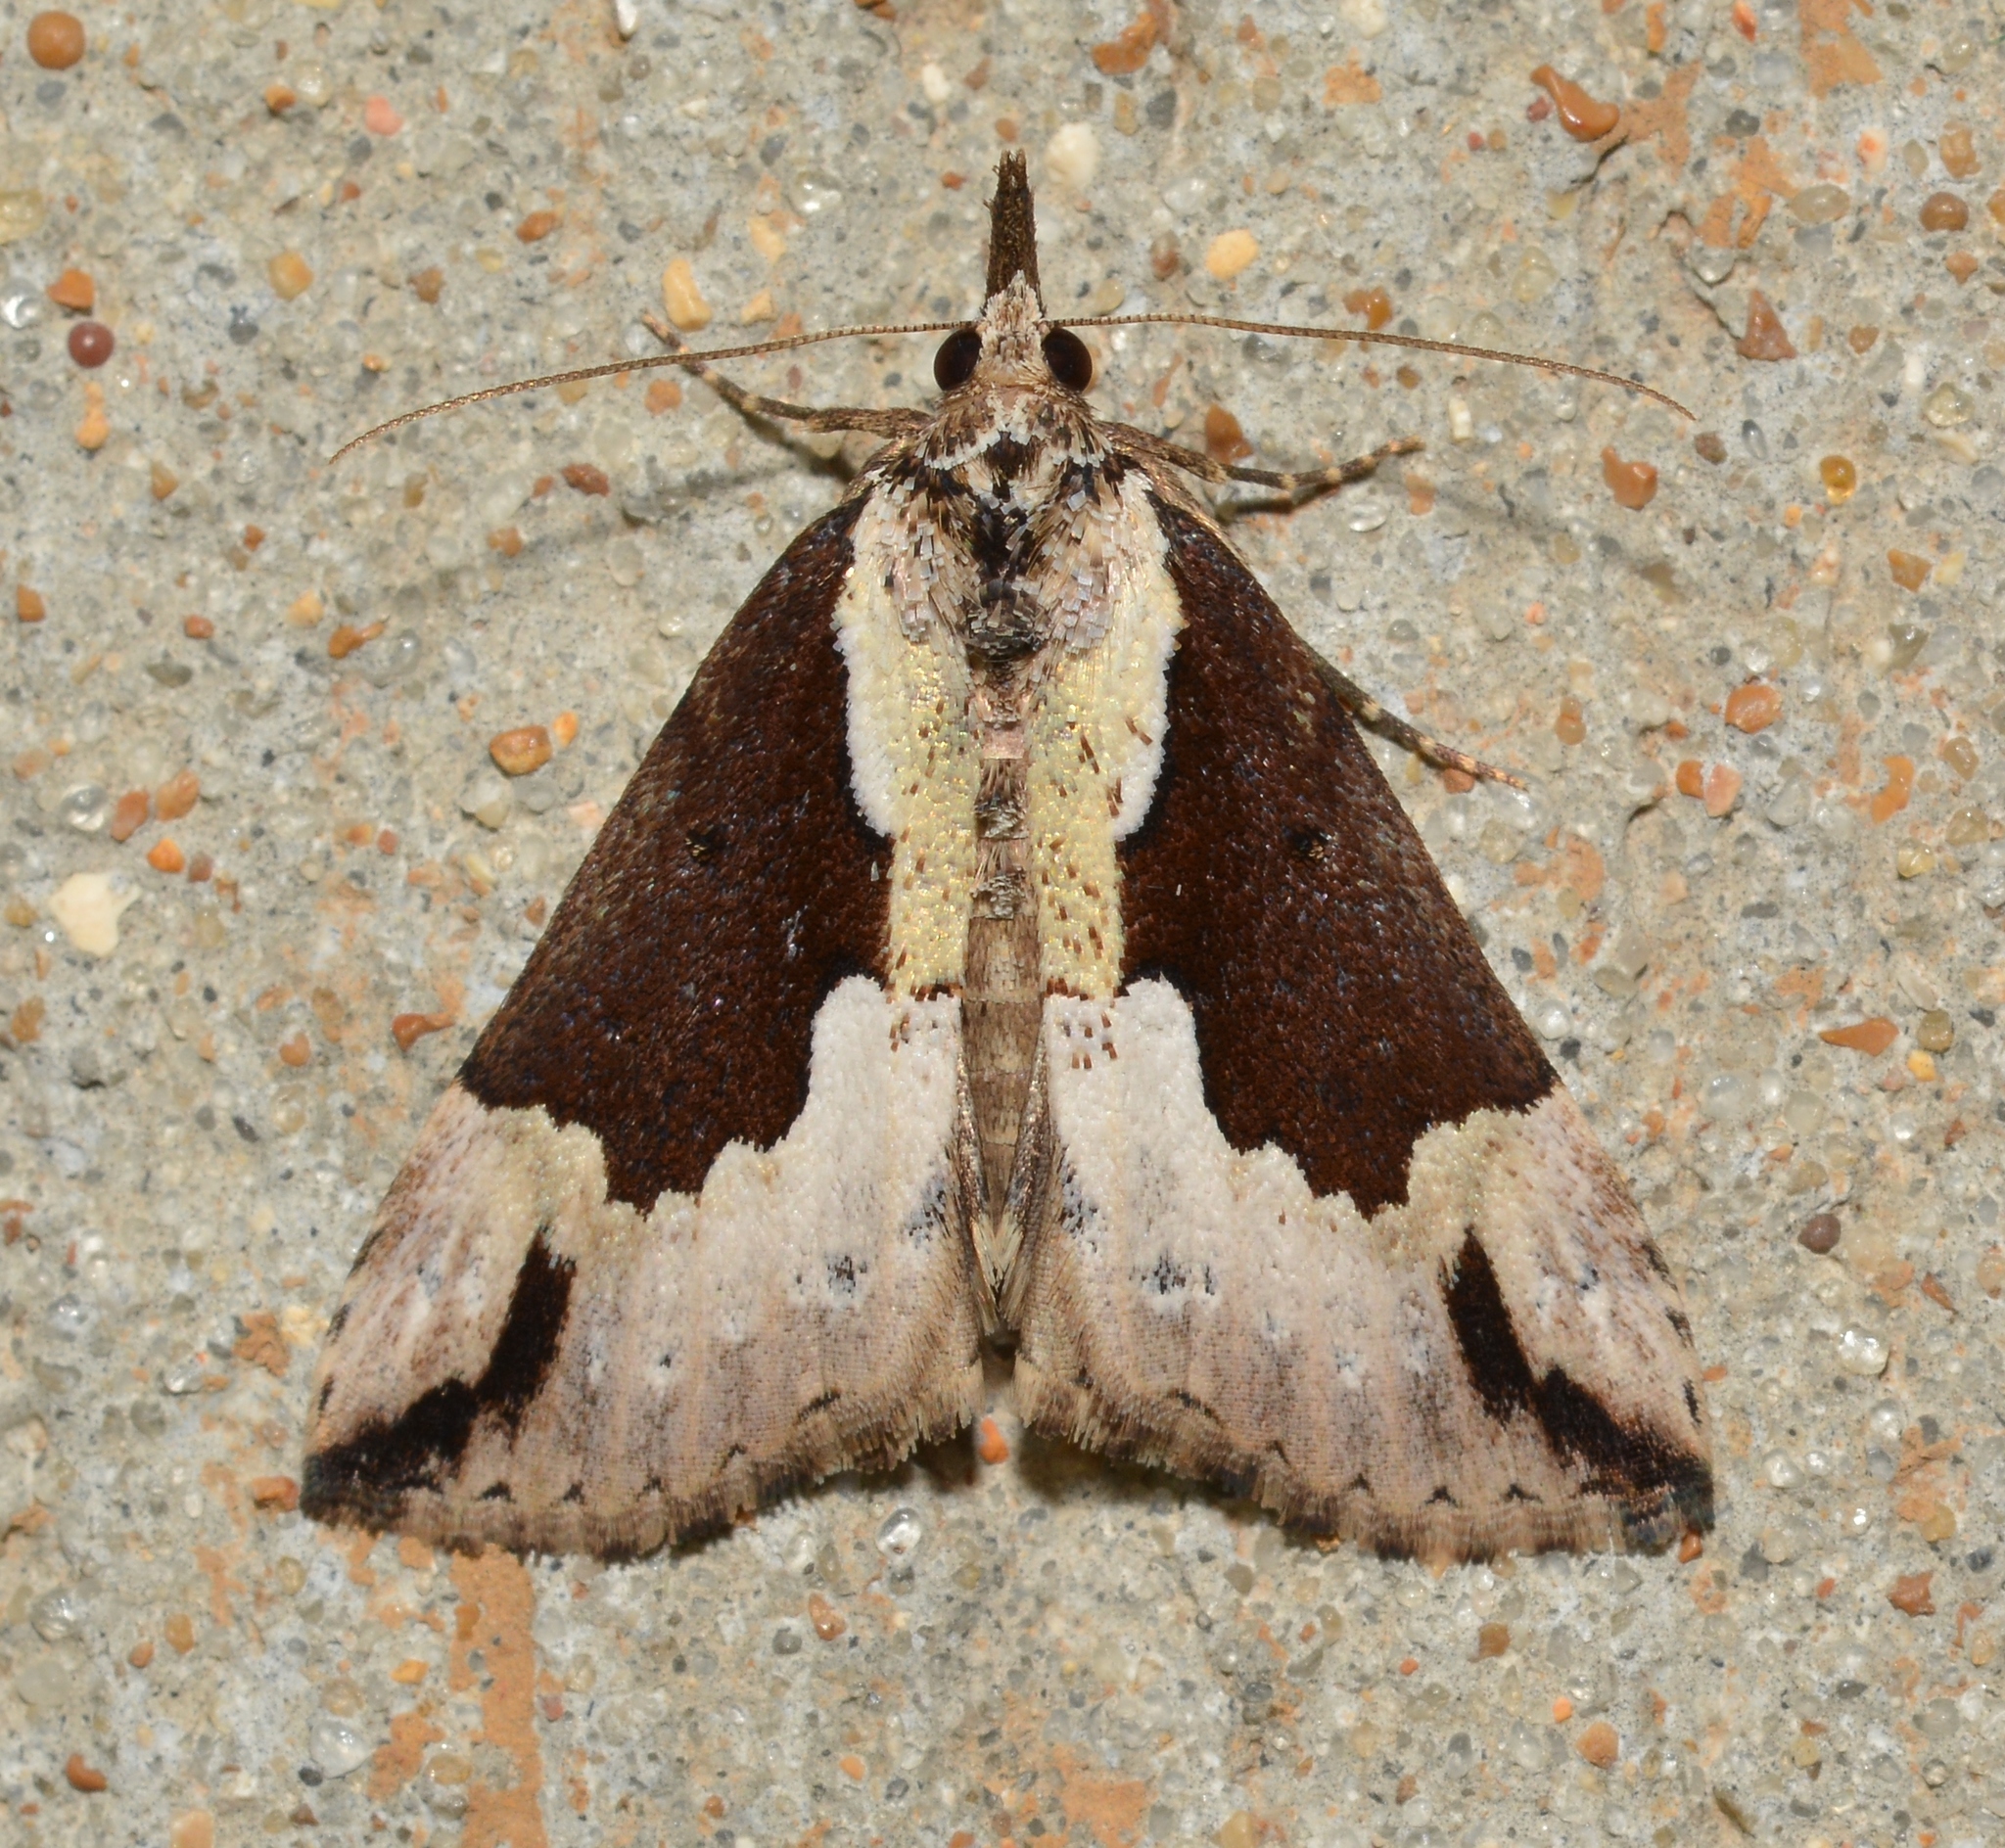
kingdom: Animalia
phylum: Arthropoda
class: Insecta
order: Lepidoptera
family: Erebidae
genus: Hypena
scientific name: Hypena baltimoralis
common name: Baltimore snout
